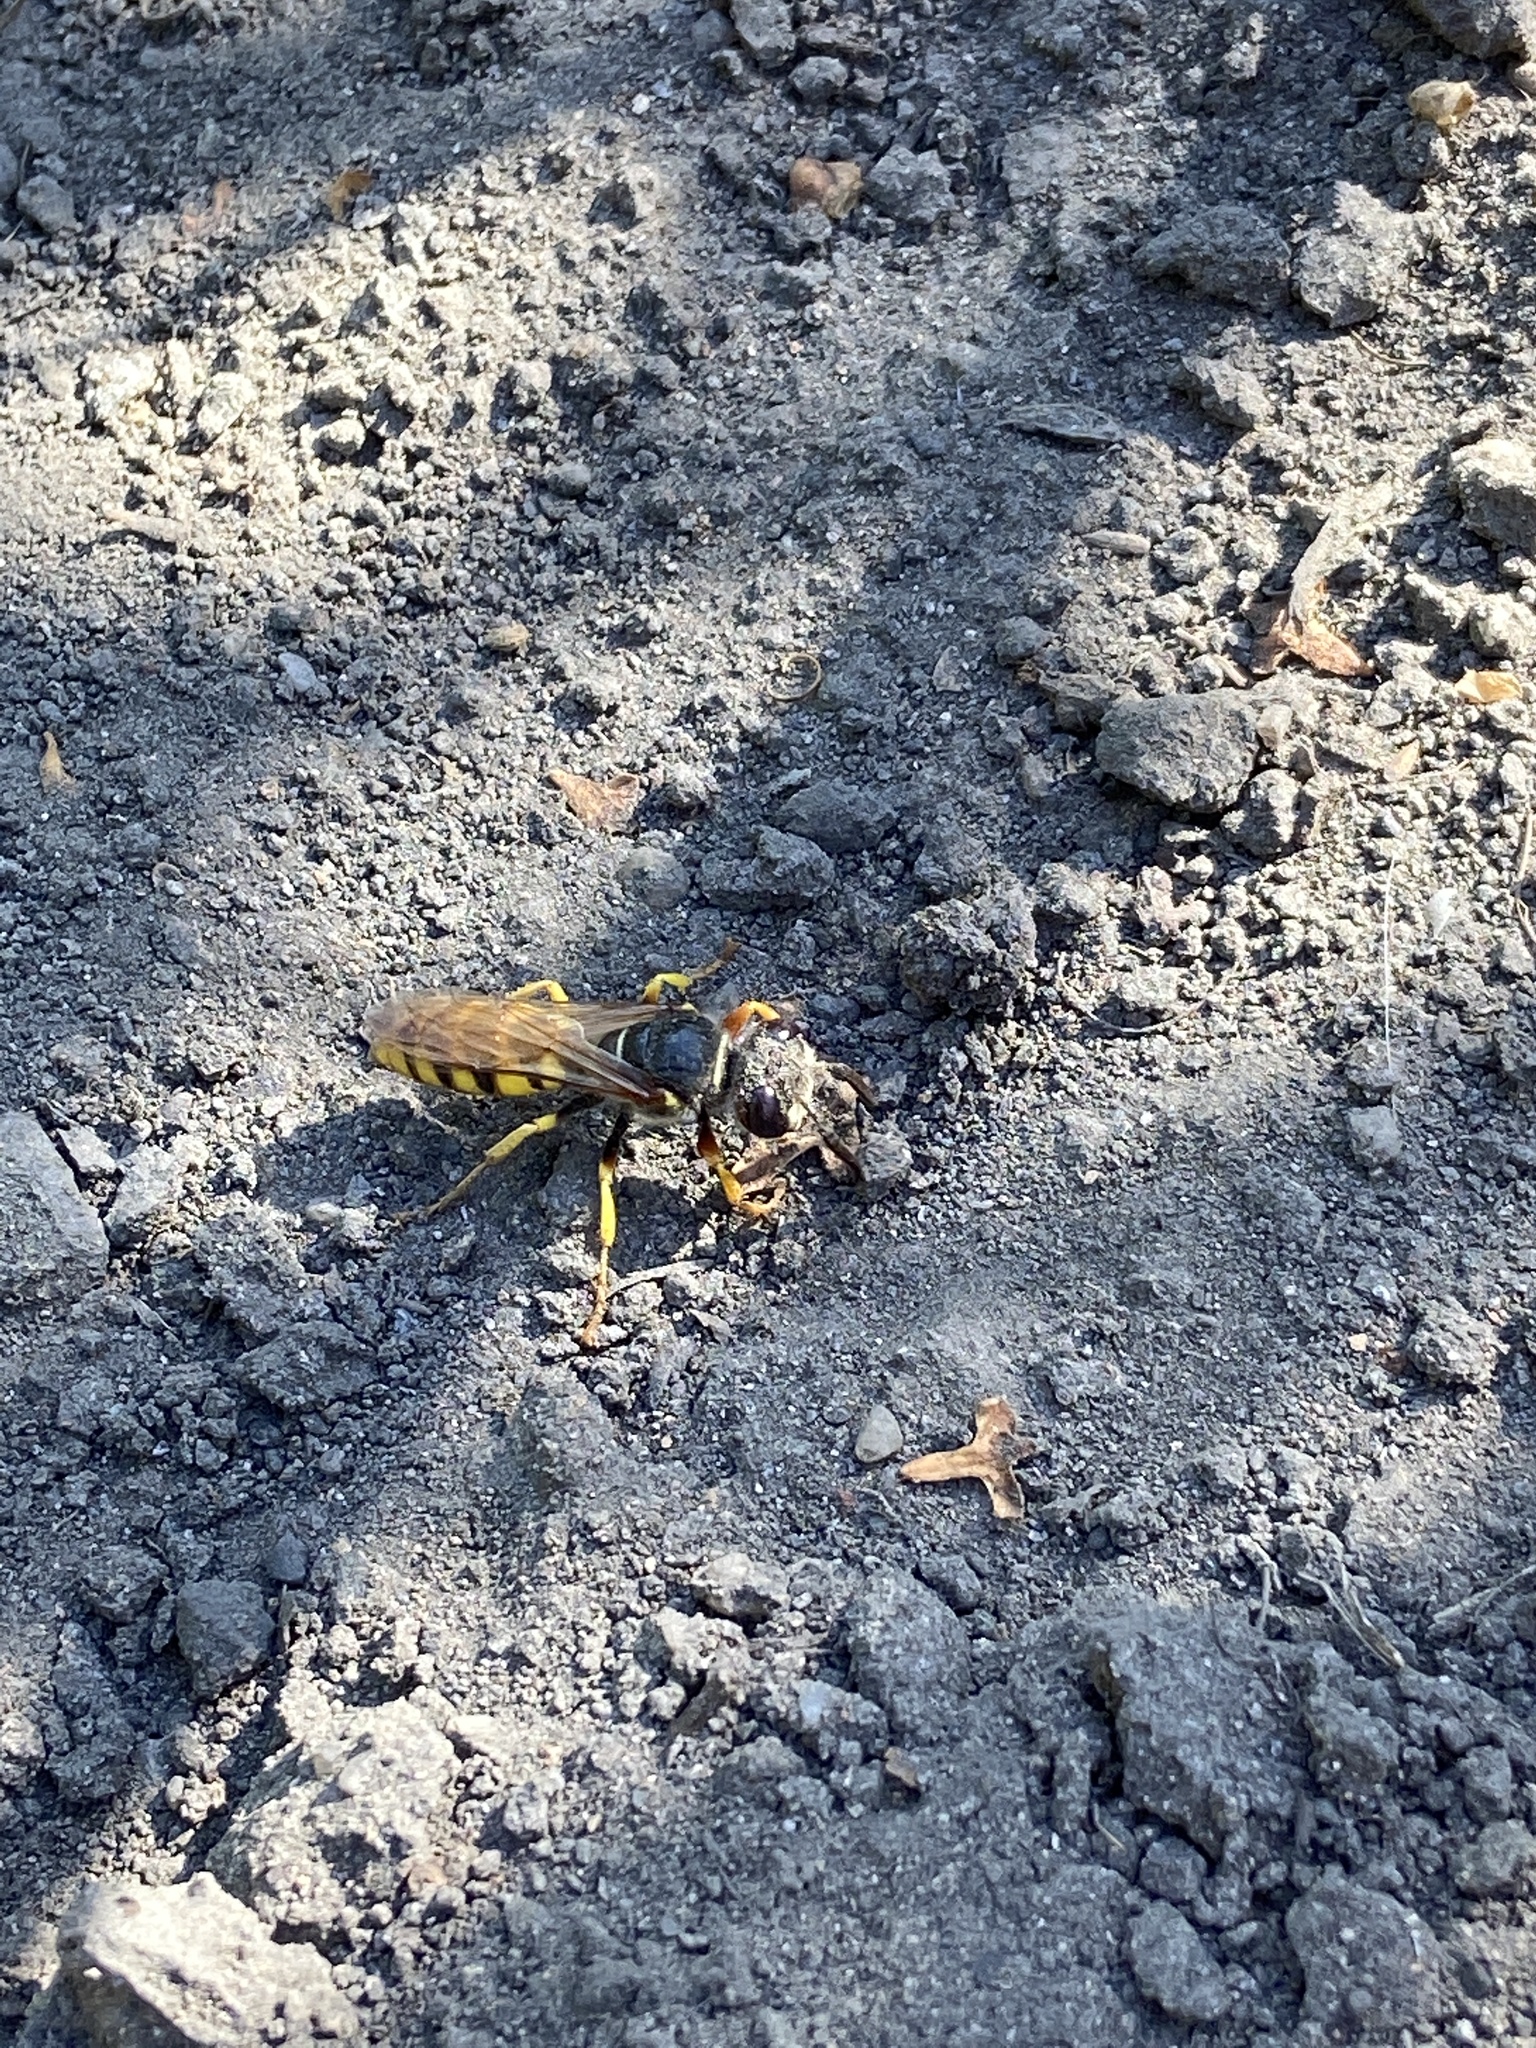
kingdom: Animalia
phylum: Arthropoda
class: Insecta
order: Hymenoptera
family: Crabronidae
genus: Philanthus
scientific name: Philanthus triangulum
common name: Bee wolf
